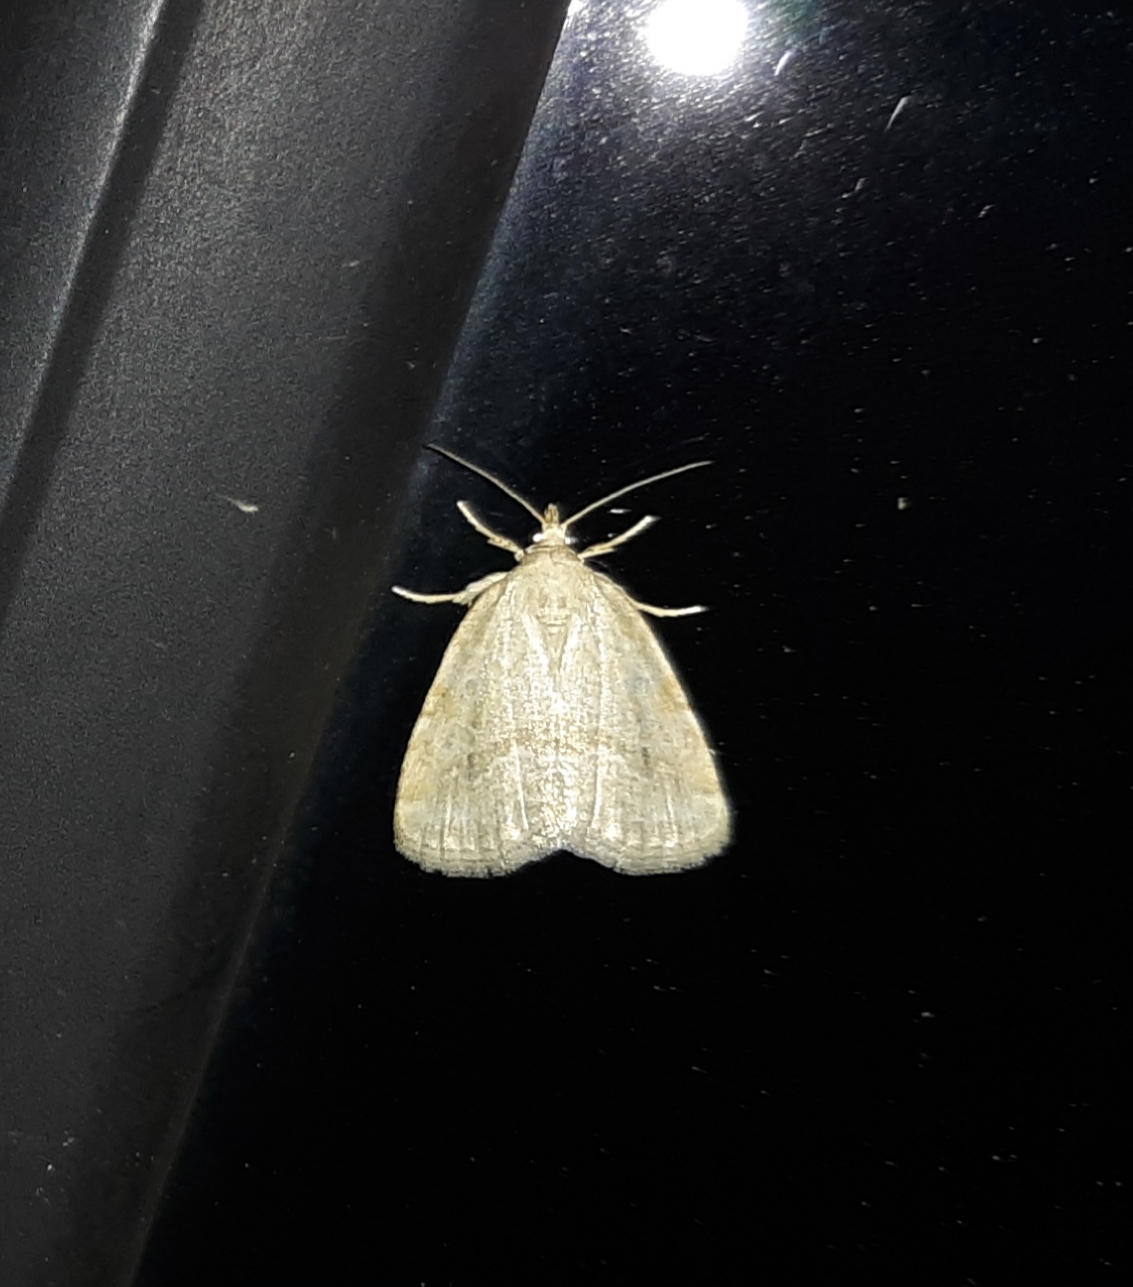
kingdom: Animalia
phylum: Arthropoda
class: Insecta
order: Lepidoptera
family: Noctuidae
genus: Protodeltote
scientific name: Protodeltote albidula
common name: Pale glyph
